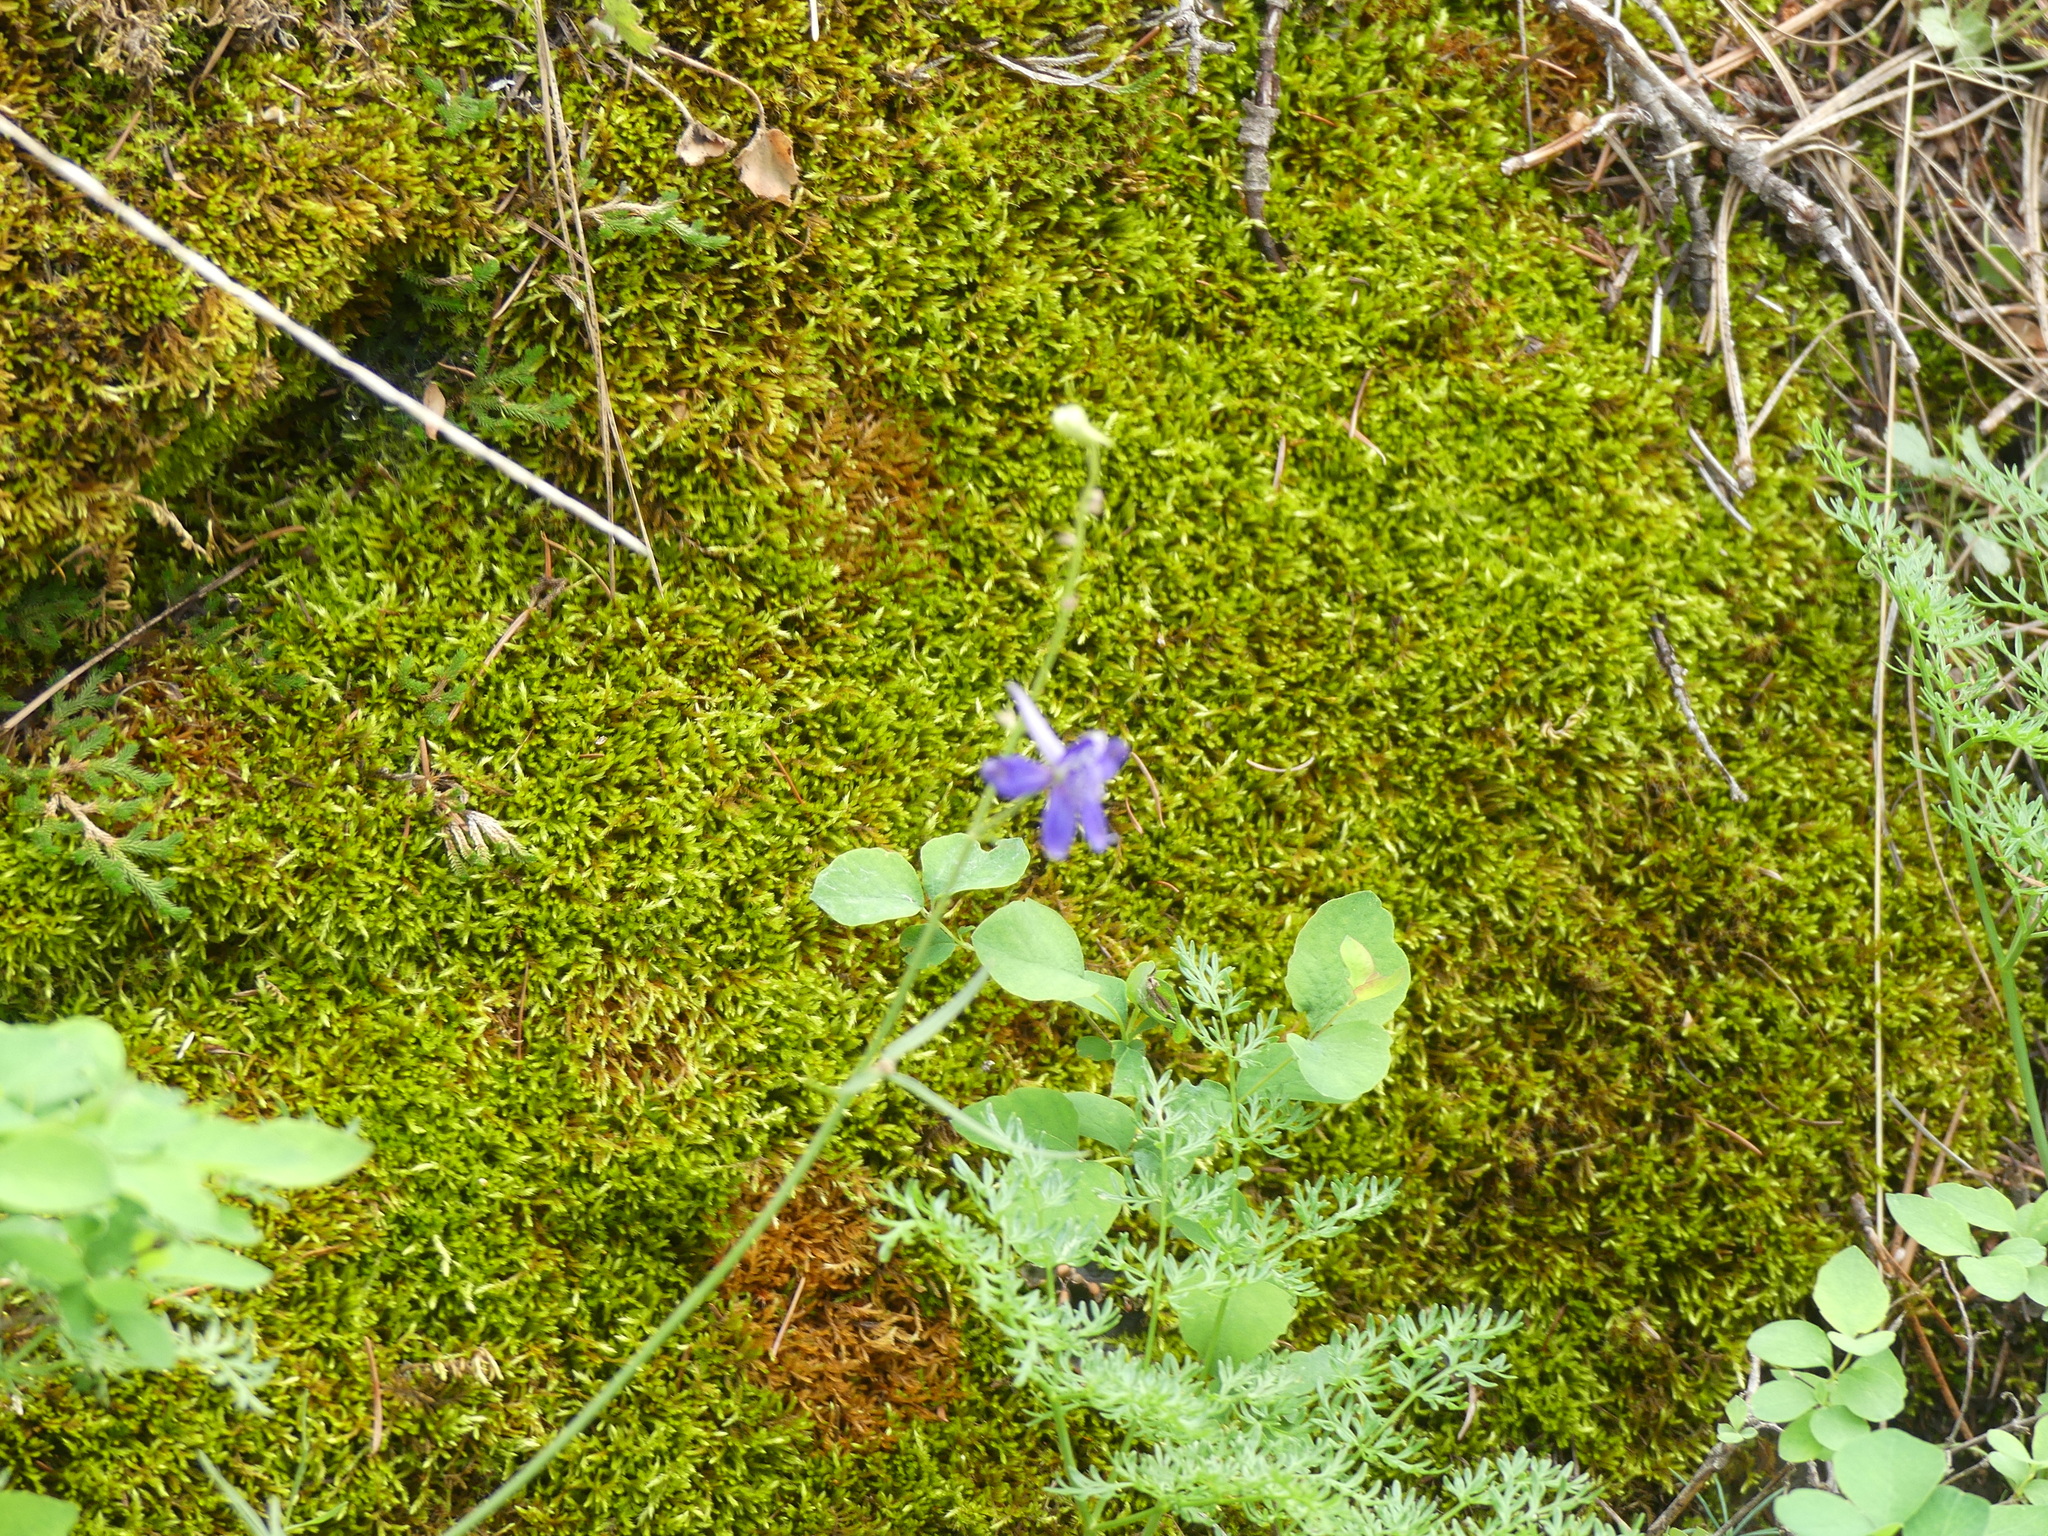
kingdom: Plantae
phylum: Tracheophyta
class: Magnoliopsida
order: Ranunculales
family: Ranunculaceae
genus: Delphinium
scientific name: Delphinium nuttallianum
